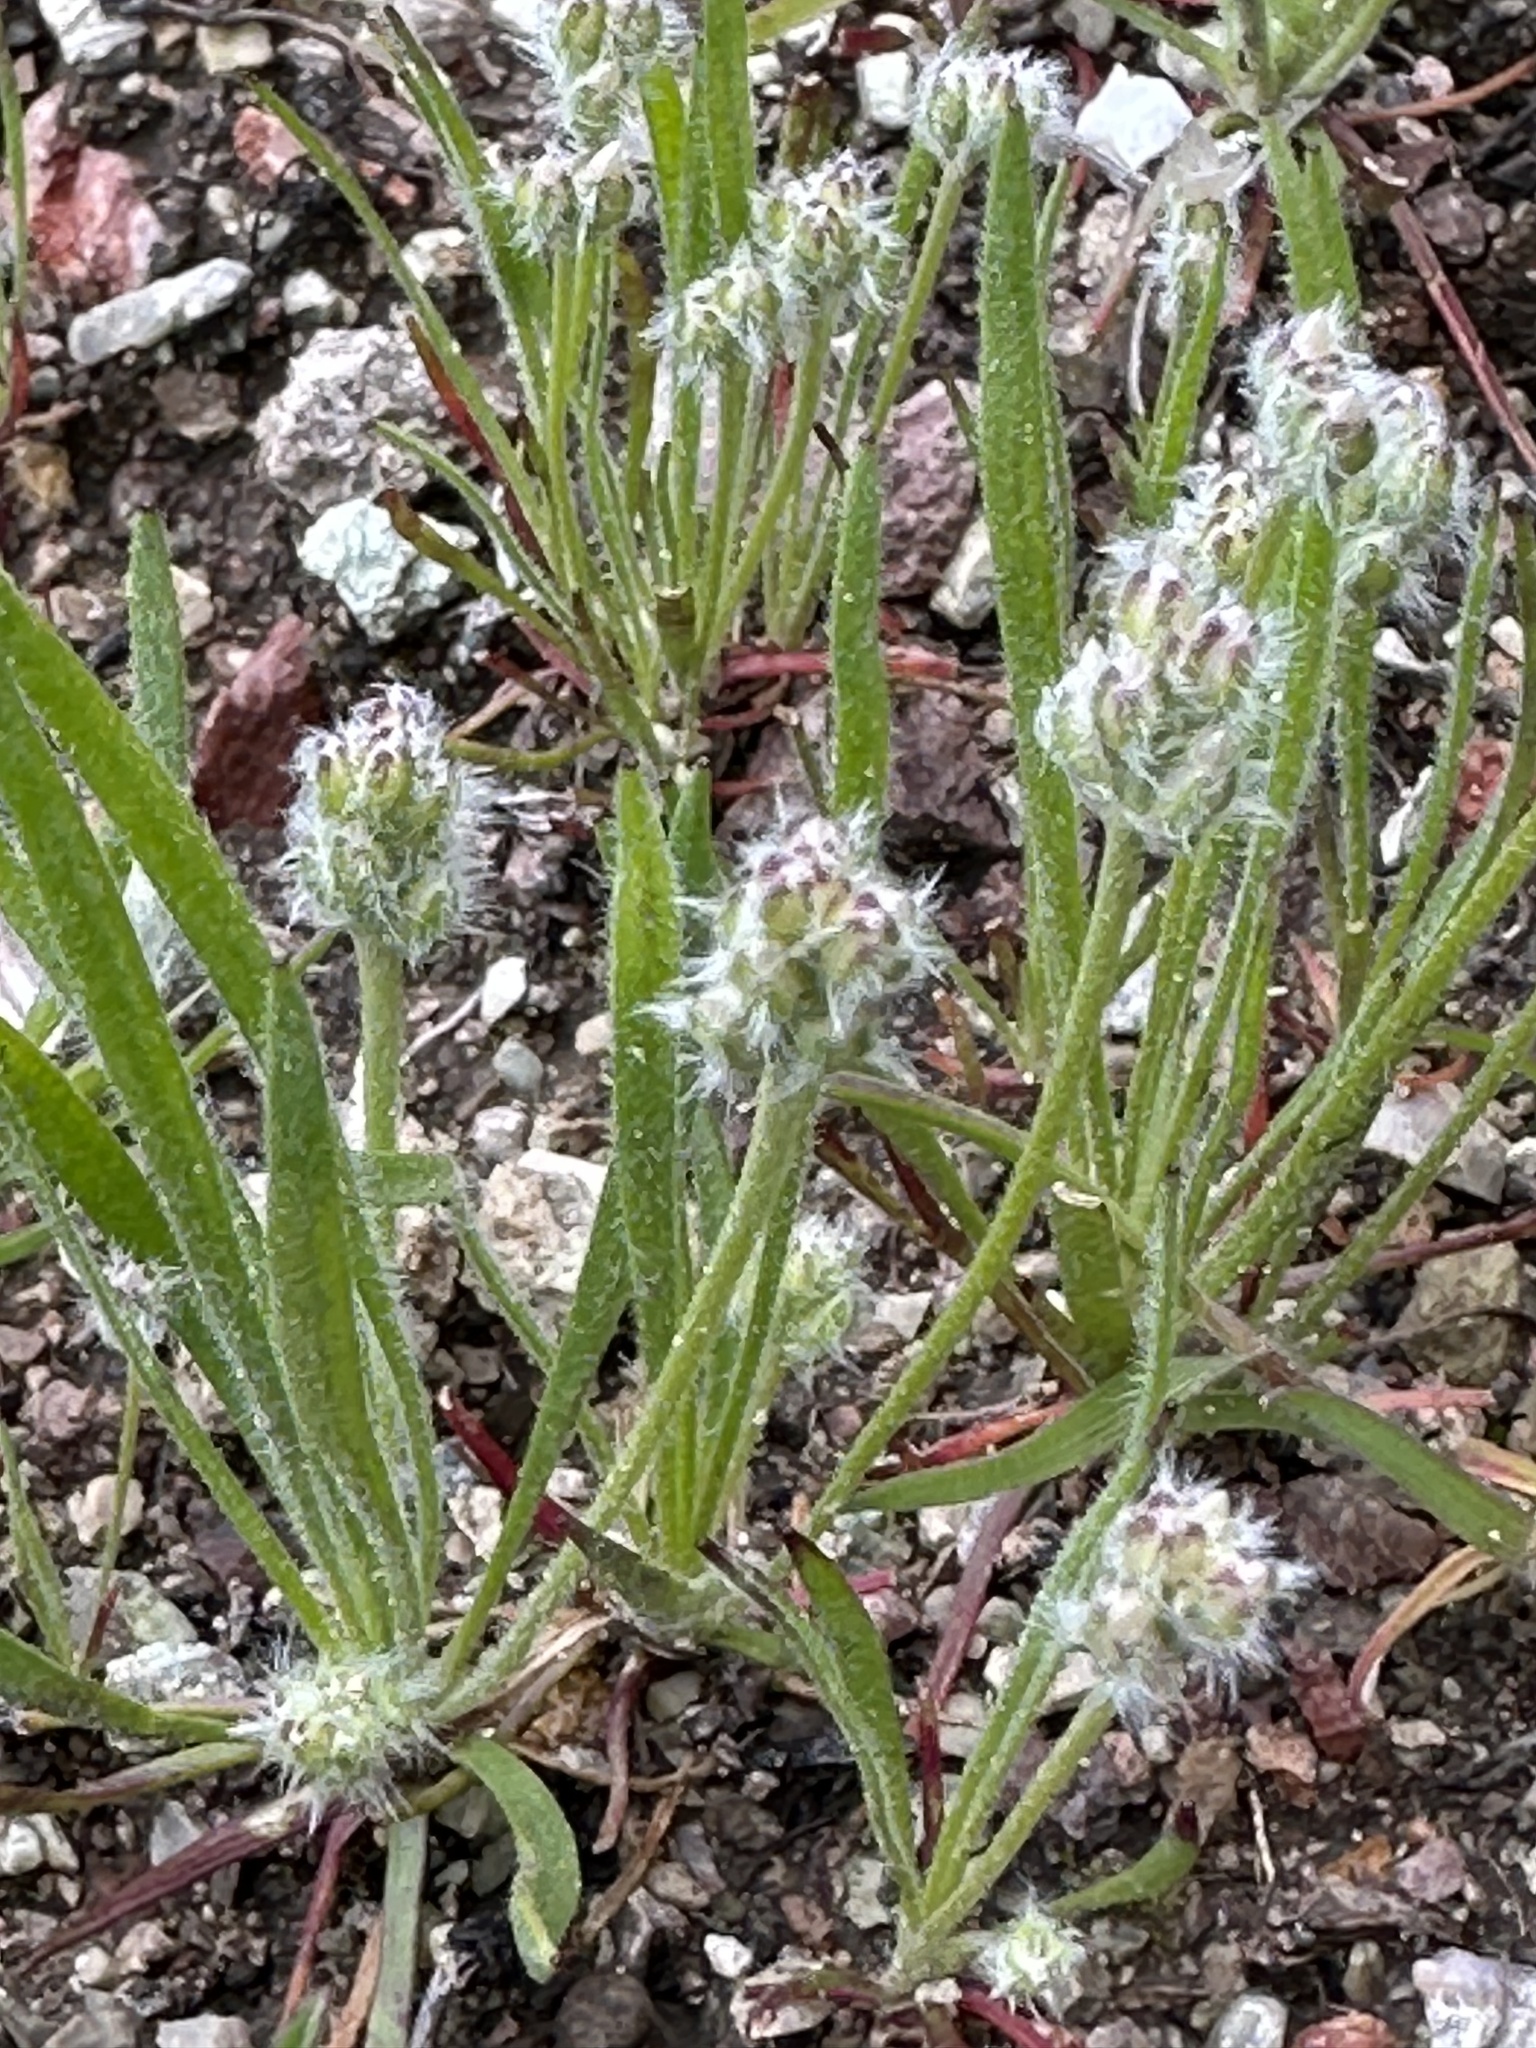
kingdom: Plantae
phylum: Tracheophyta
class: Magnoliopsida
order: Lamiales
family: Plantaginaceae
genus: Plantago
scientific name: Plantago erecta
